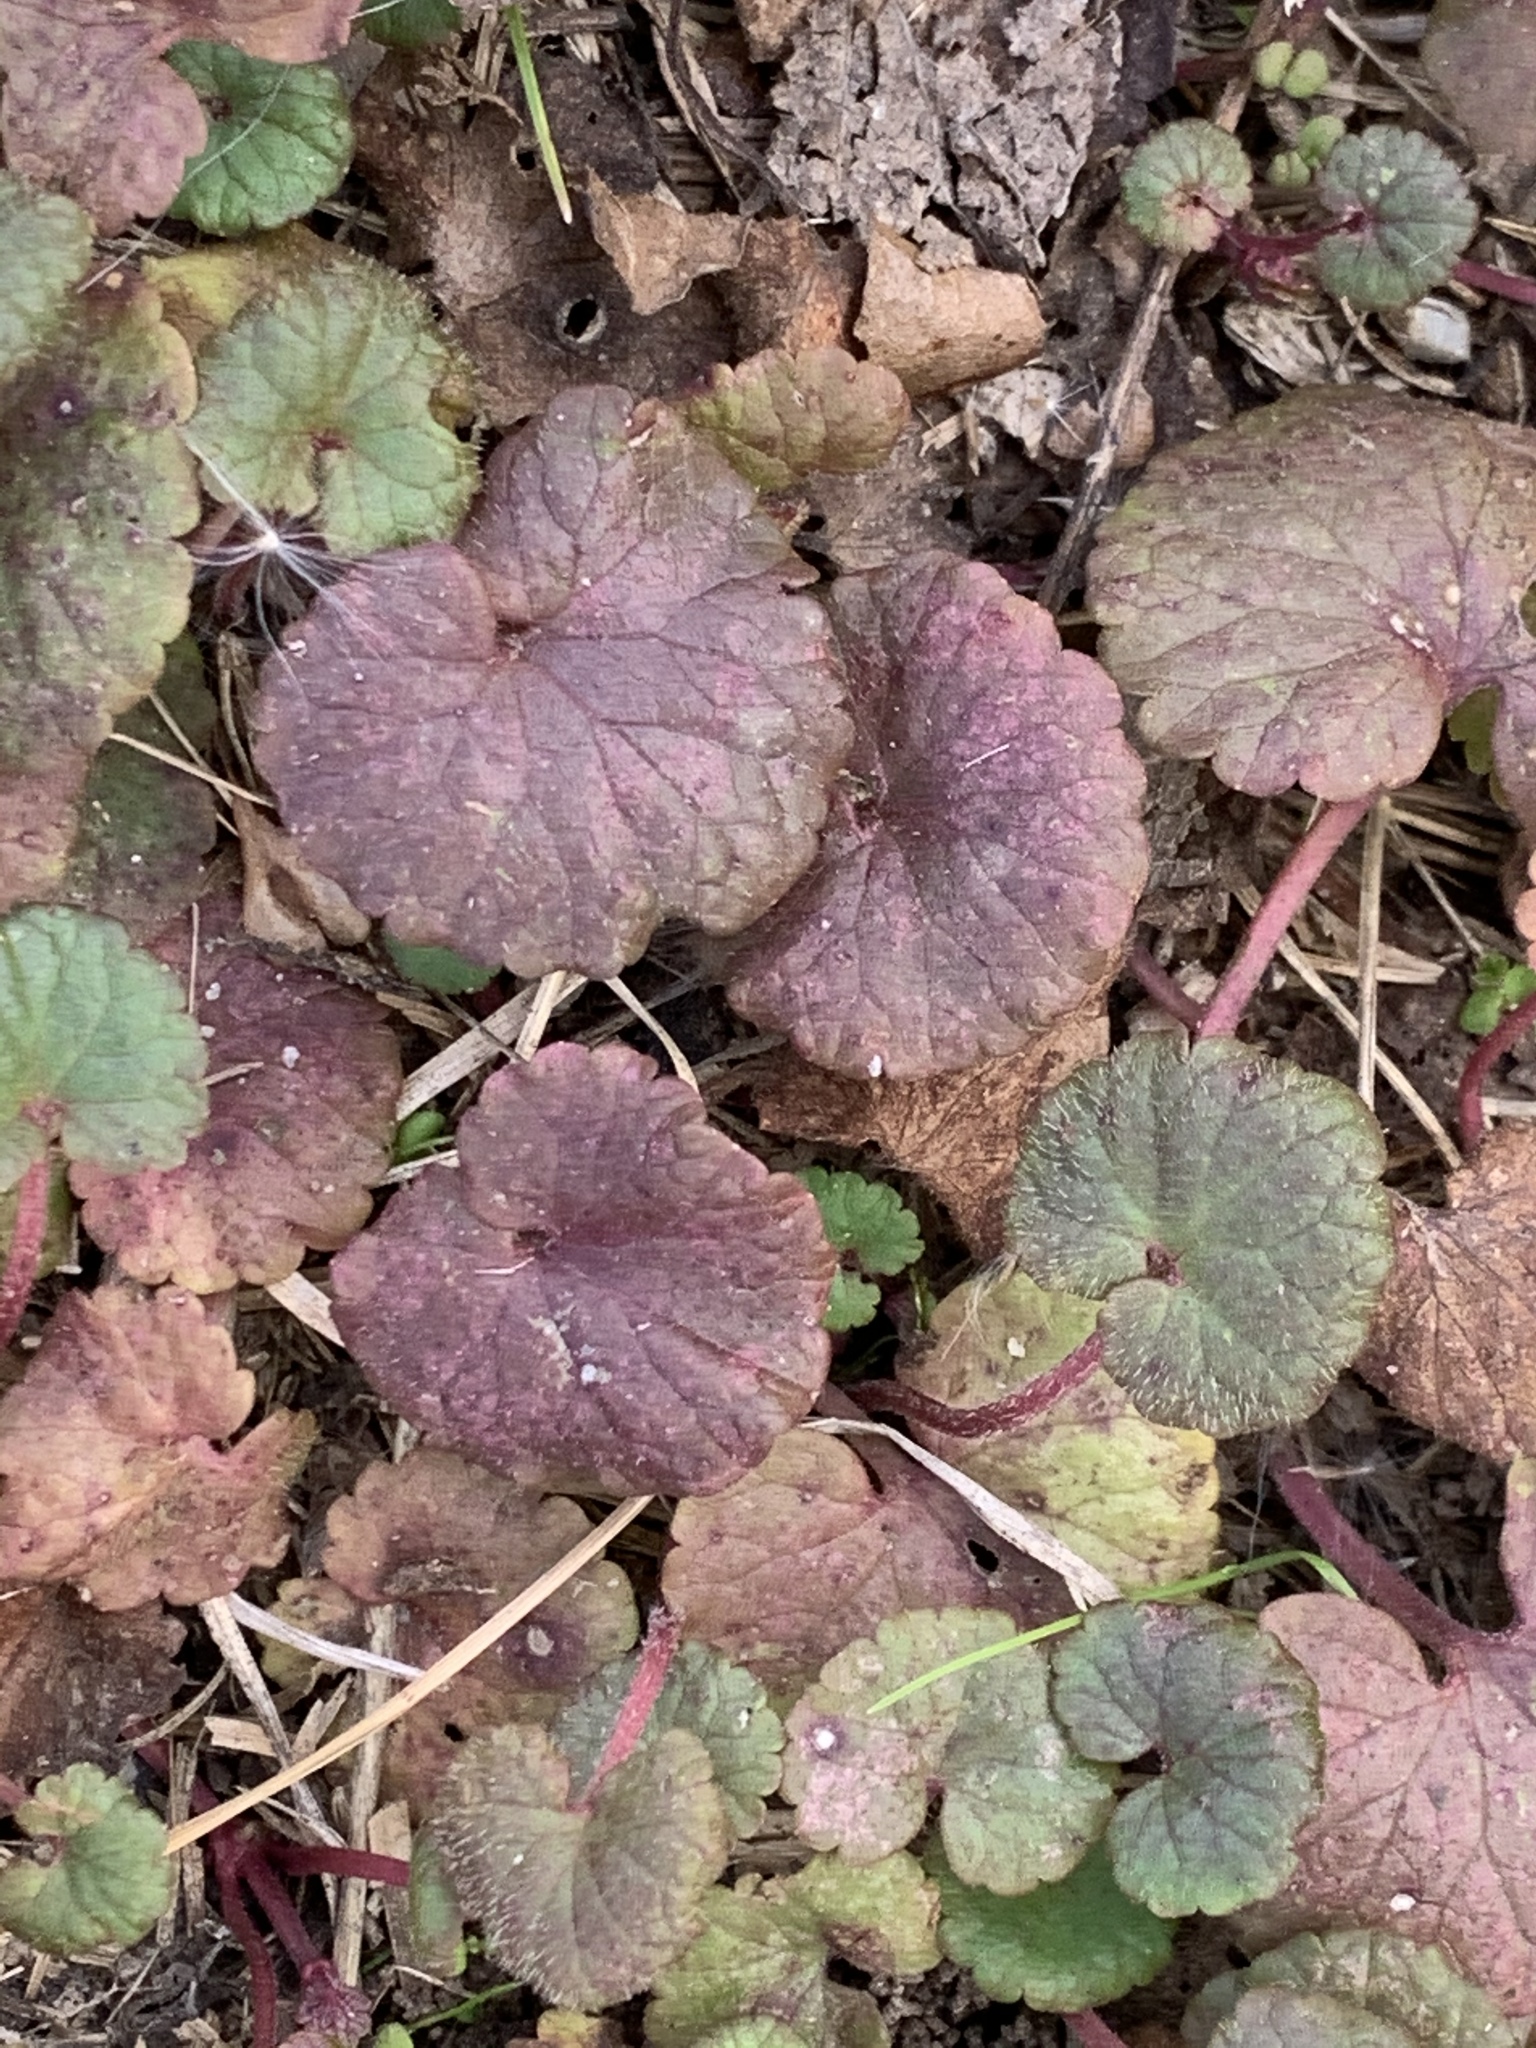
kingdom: Plantae
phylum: Tracheophyta
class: Magnoliopsida
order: Lamiales
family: Lamiaceae
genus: Glechoma
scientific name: Glechoma hederacea
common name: Ground ivy
